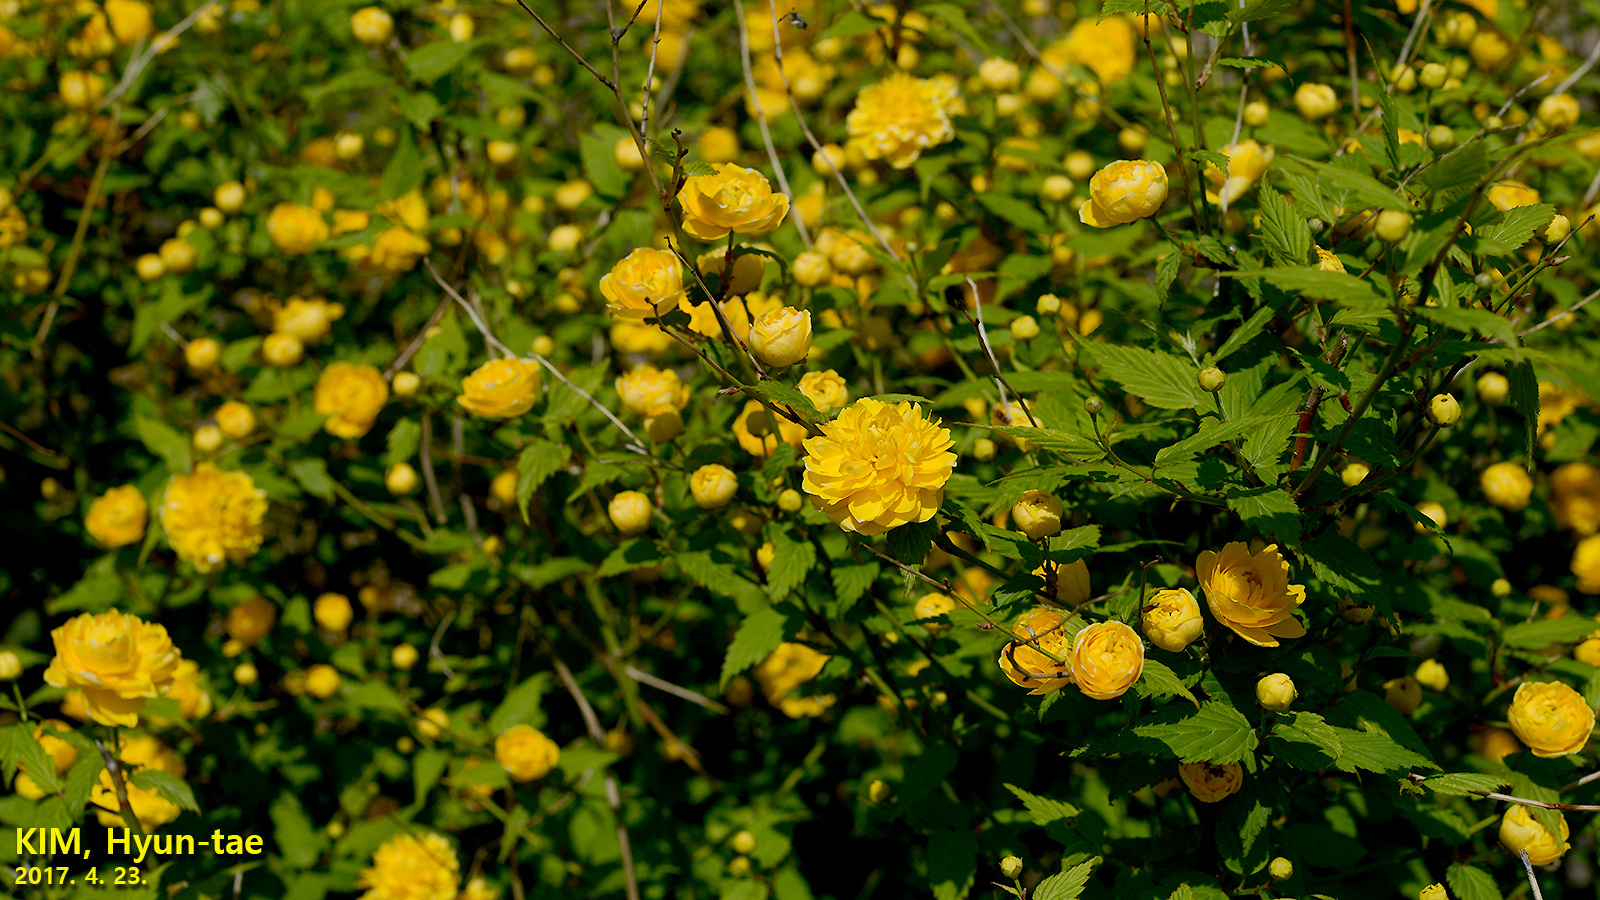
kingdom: Plantae
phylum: Tracheophyta
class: Magnoliopsida
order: Rosales
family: Rosaceae
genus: Kerria
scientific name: Kerria japonica
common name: Japanese kerria
